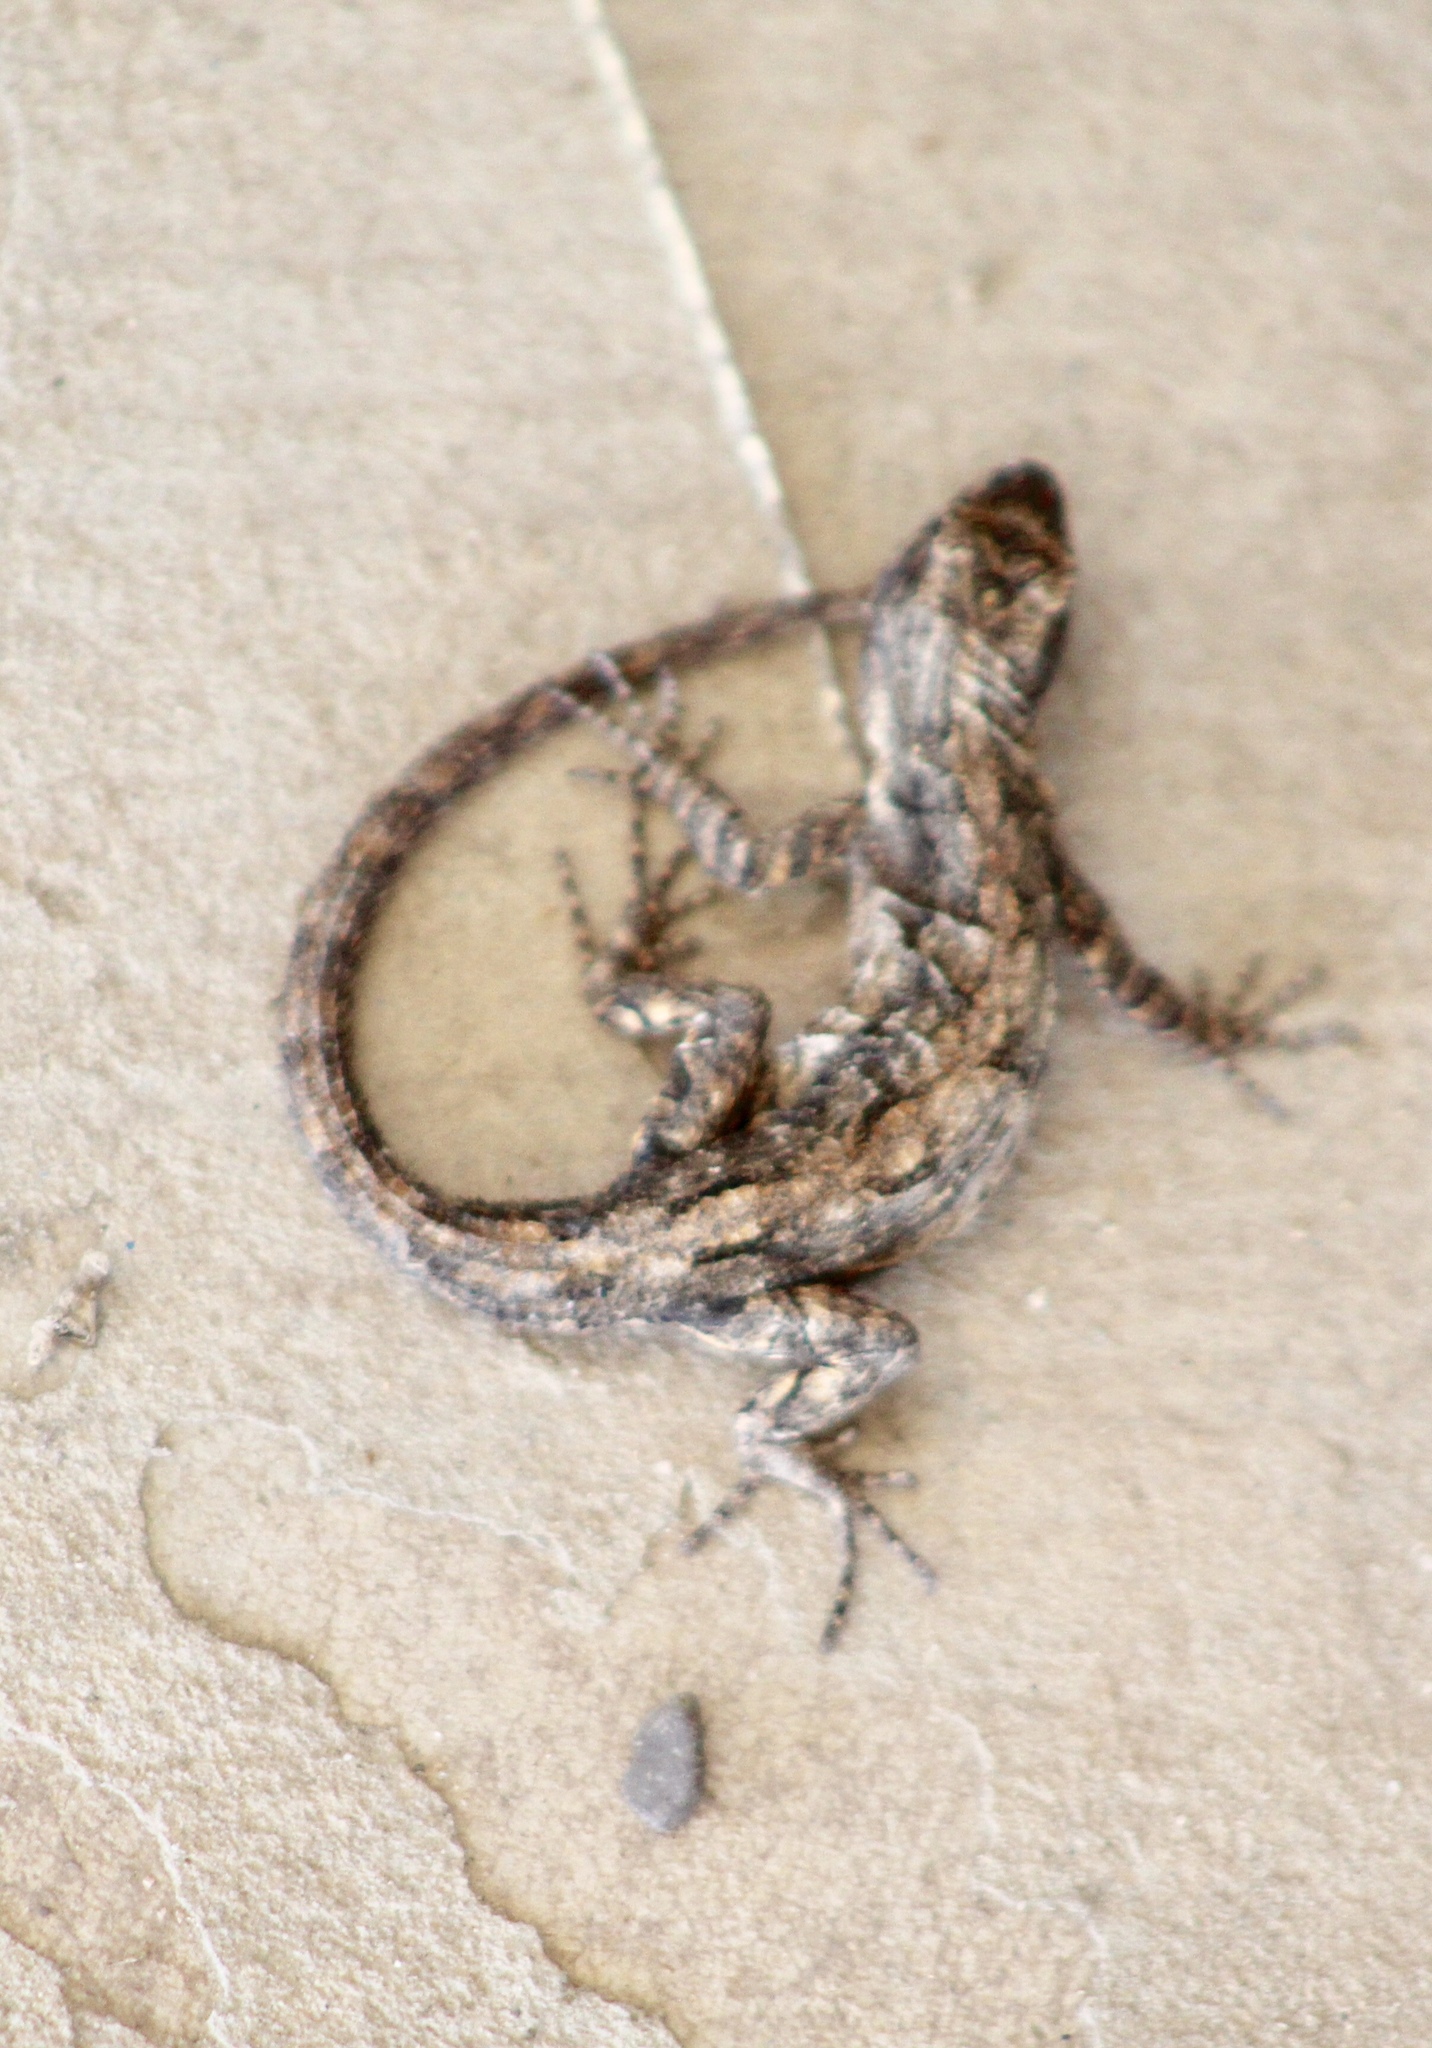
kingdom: Animalia
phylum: Chordata
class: Squamata
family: Phrynosomatidae
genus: Urosaurus
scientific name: Urosaurus ornatus
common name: Ornate tree lizard
